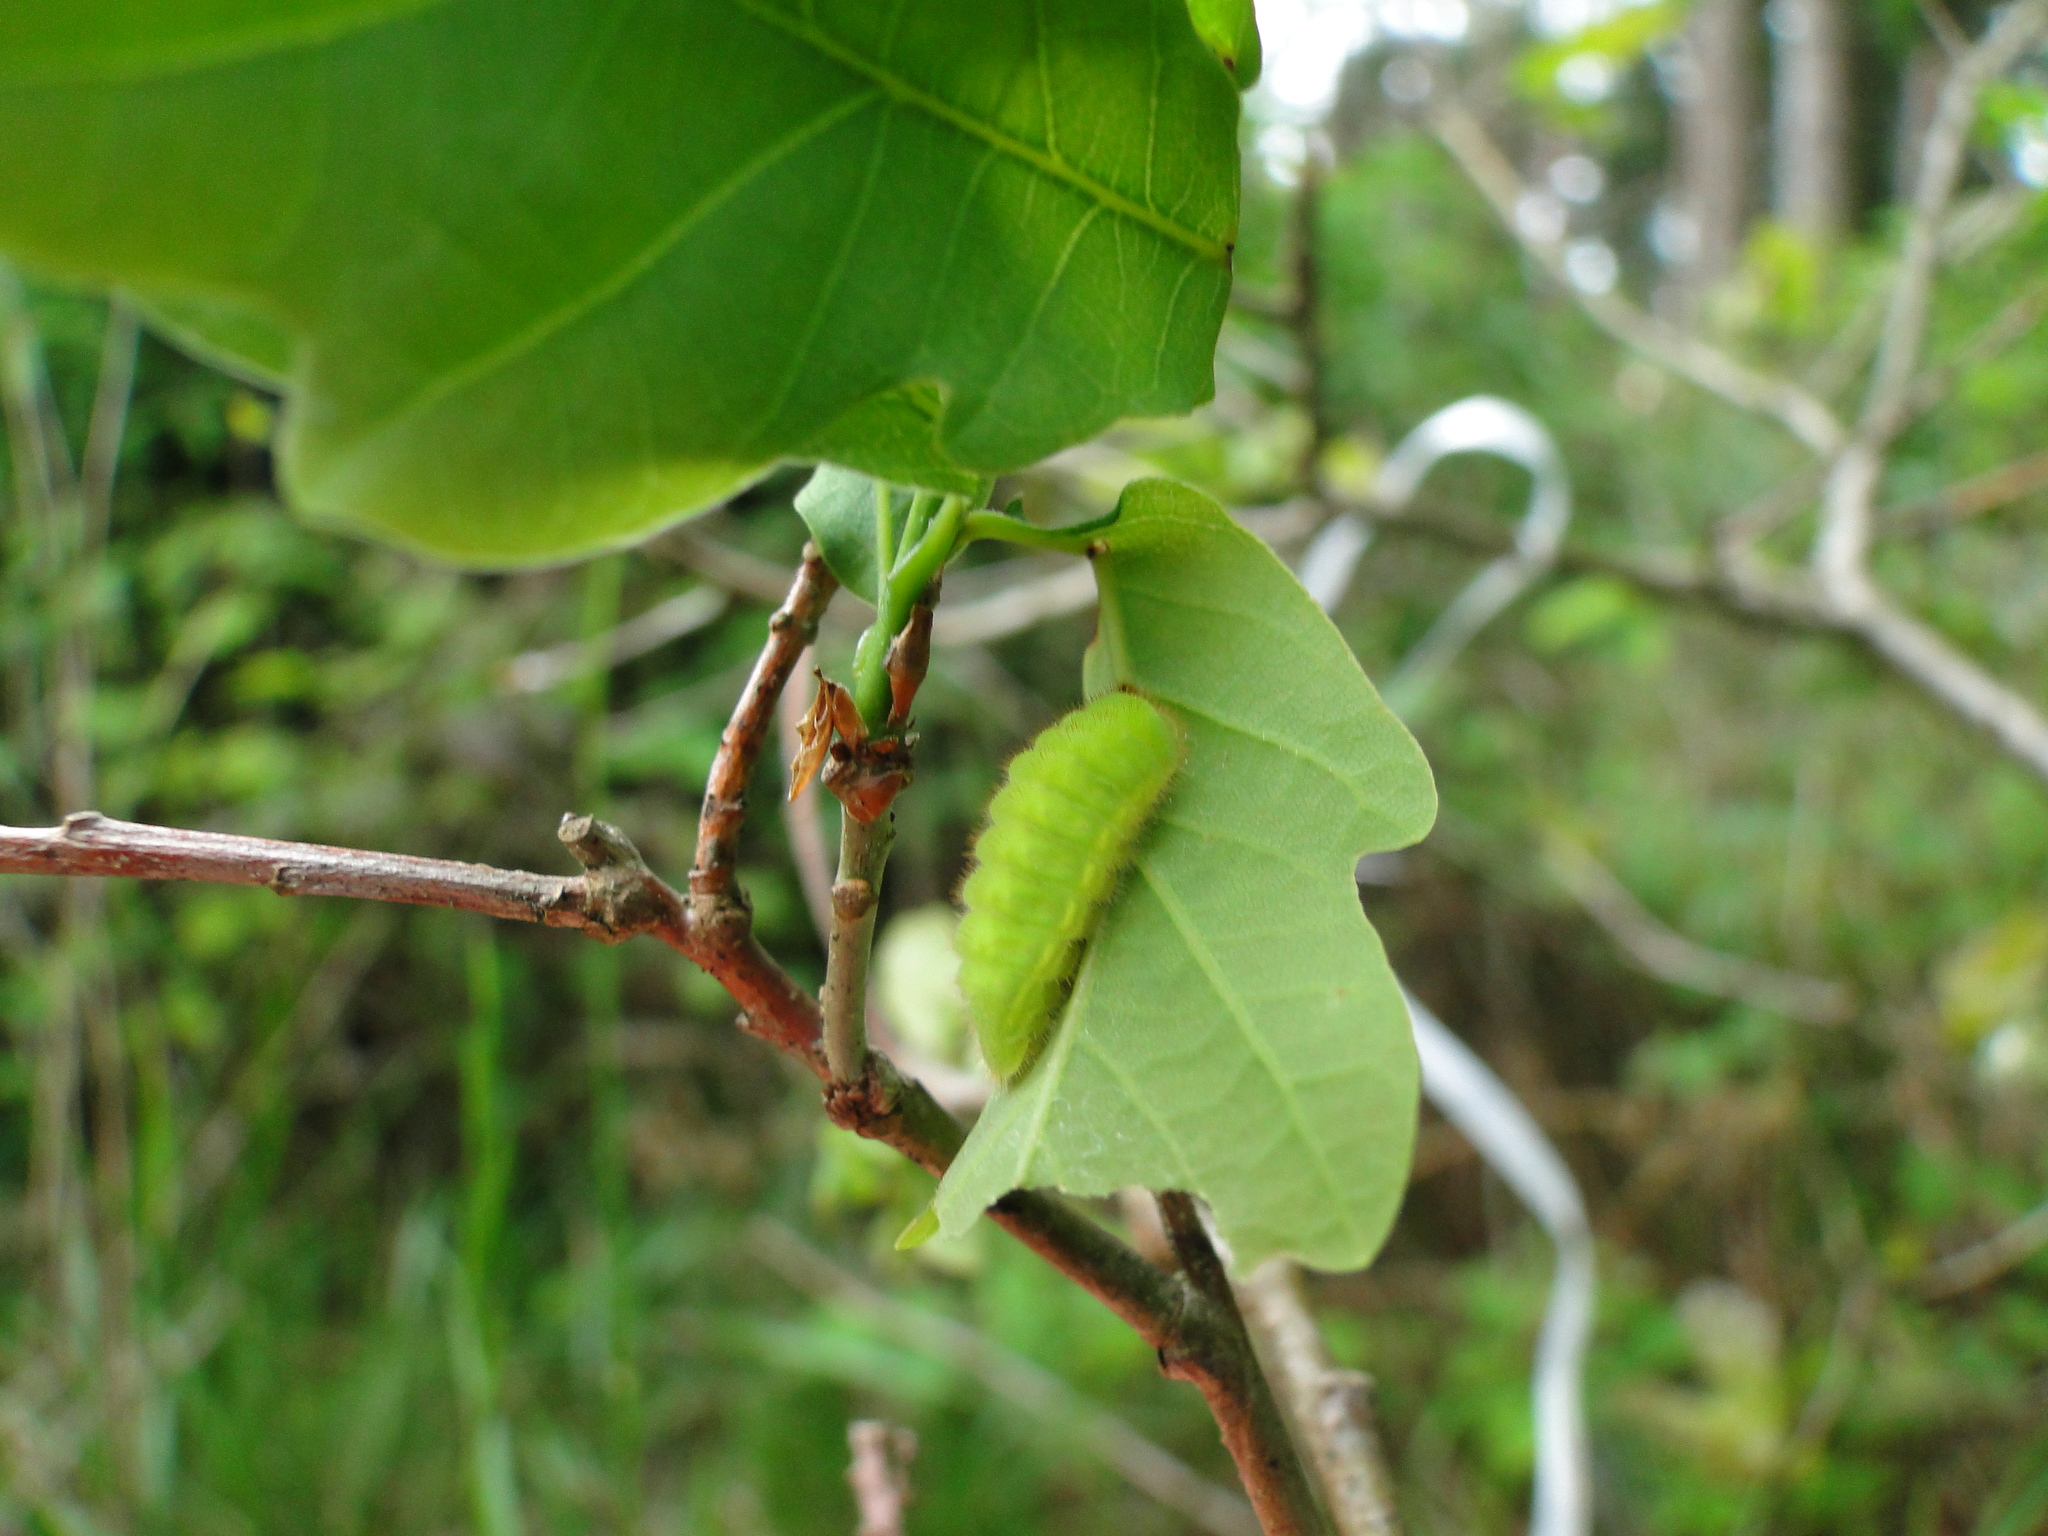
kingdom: Animalia
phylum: Arthropoda
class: Insecta
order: Lepidoptera
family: Lycaenidae
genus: Nordmannia
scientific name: Nordmannia ilicis
